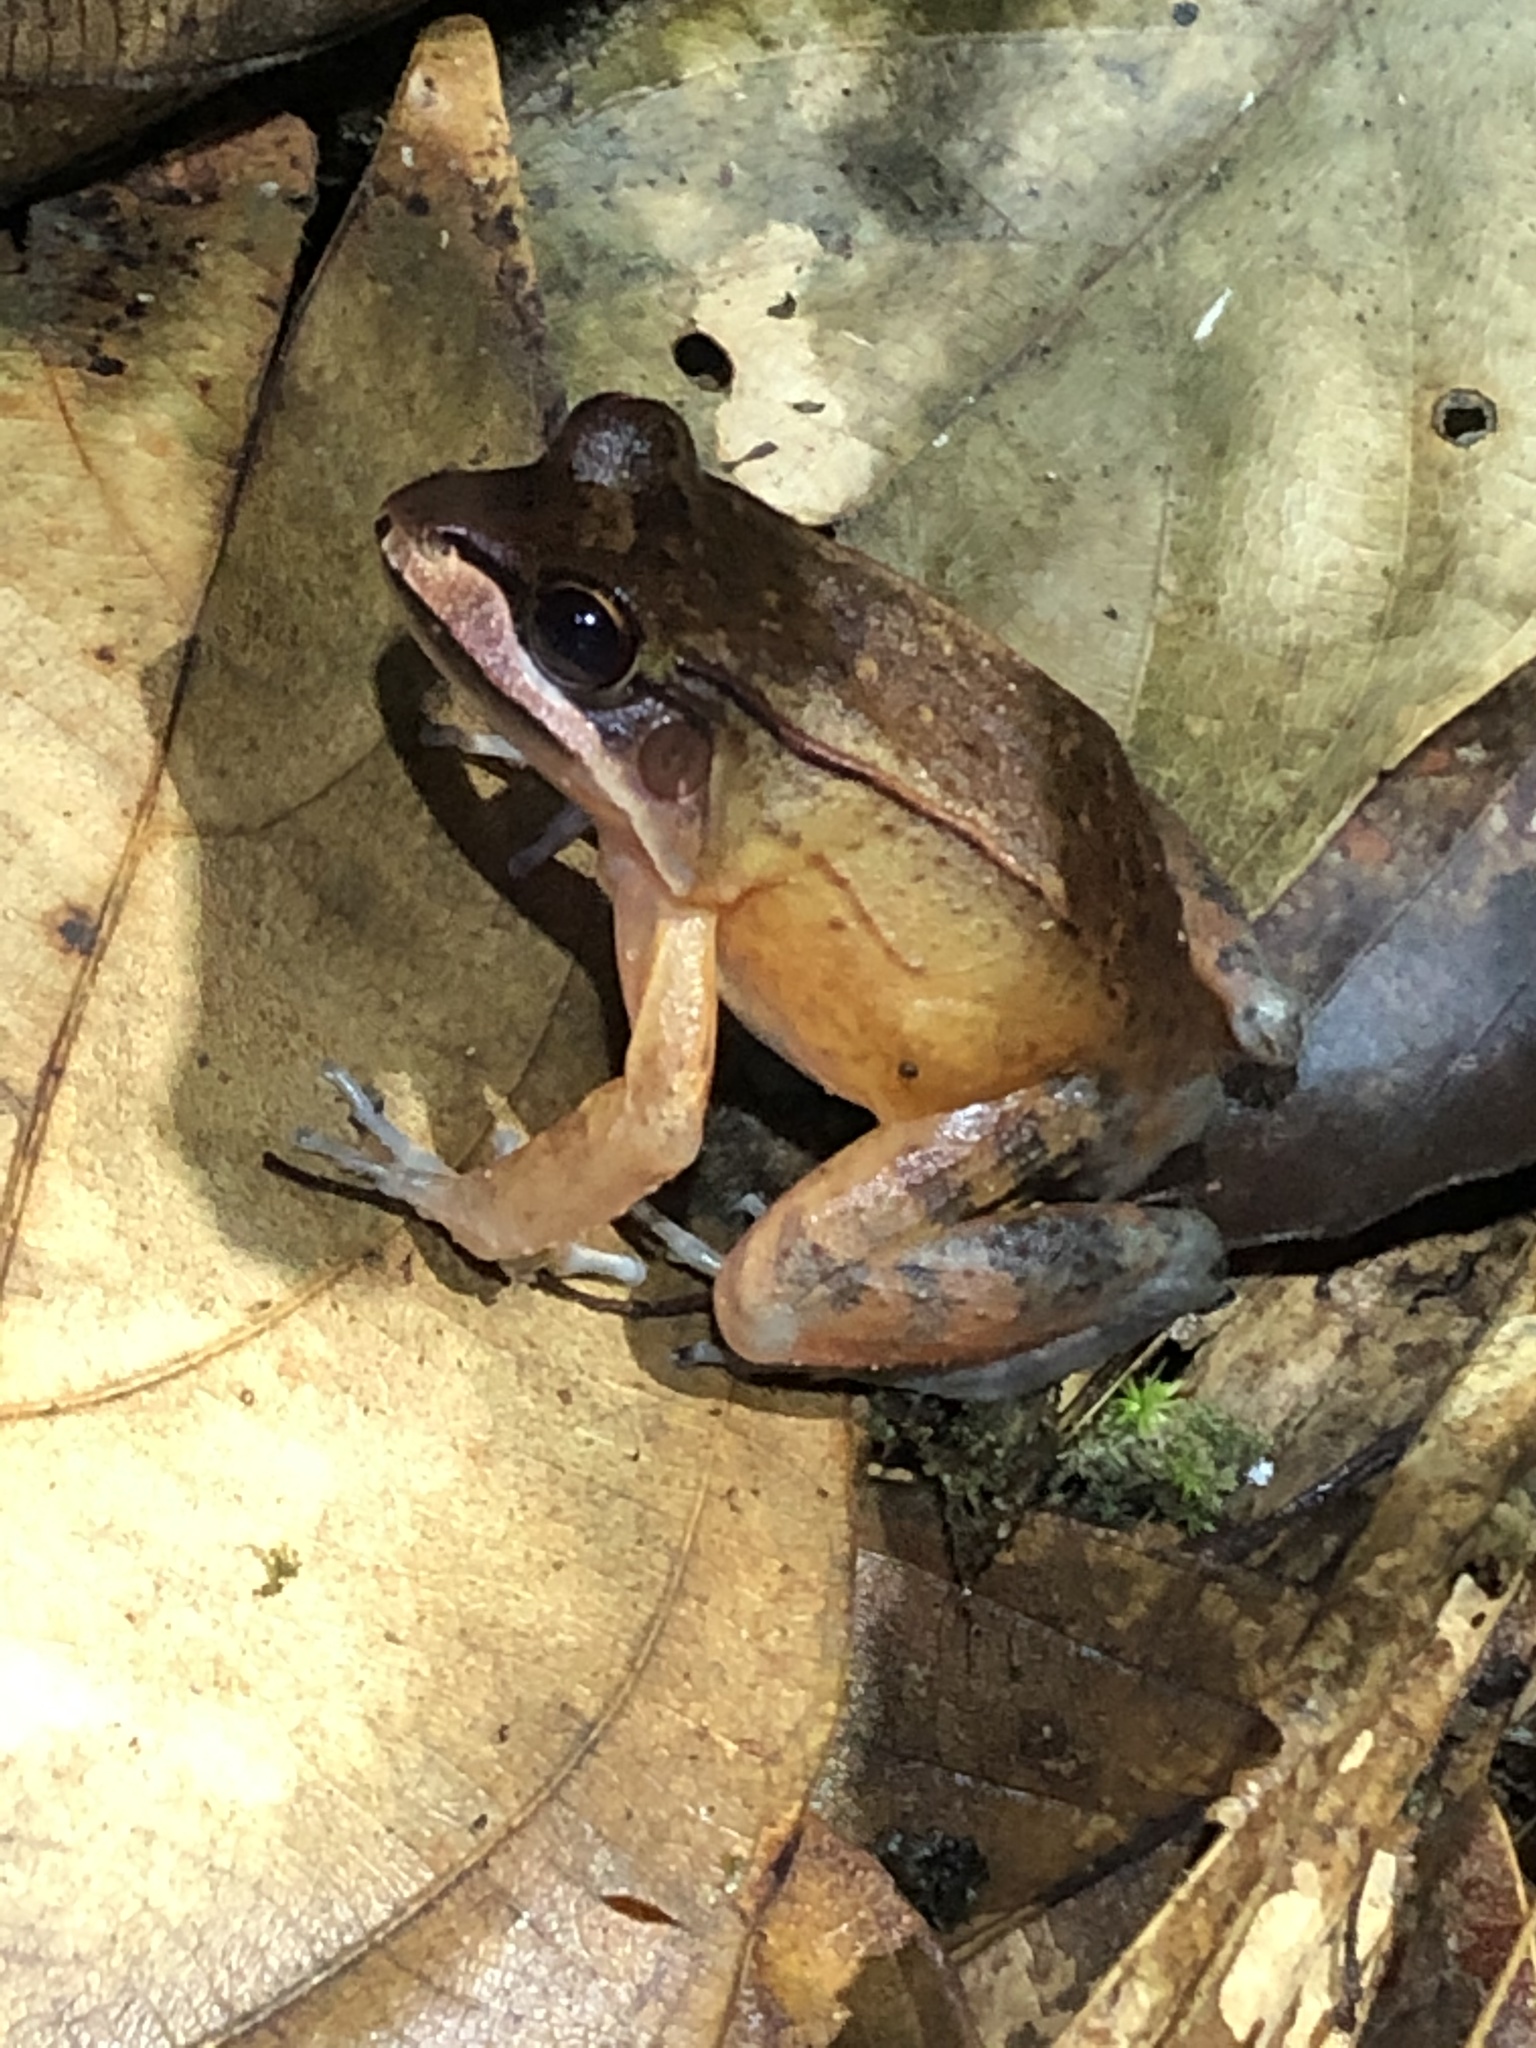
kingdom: Animalia
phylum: Chordata
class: Amphibia
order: Anura
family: Leptodactylidae
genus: Leptodactylus
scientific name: Leptodactylus rhodomystax
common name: Loreto white-lipped frog
